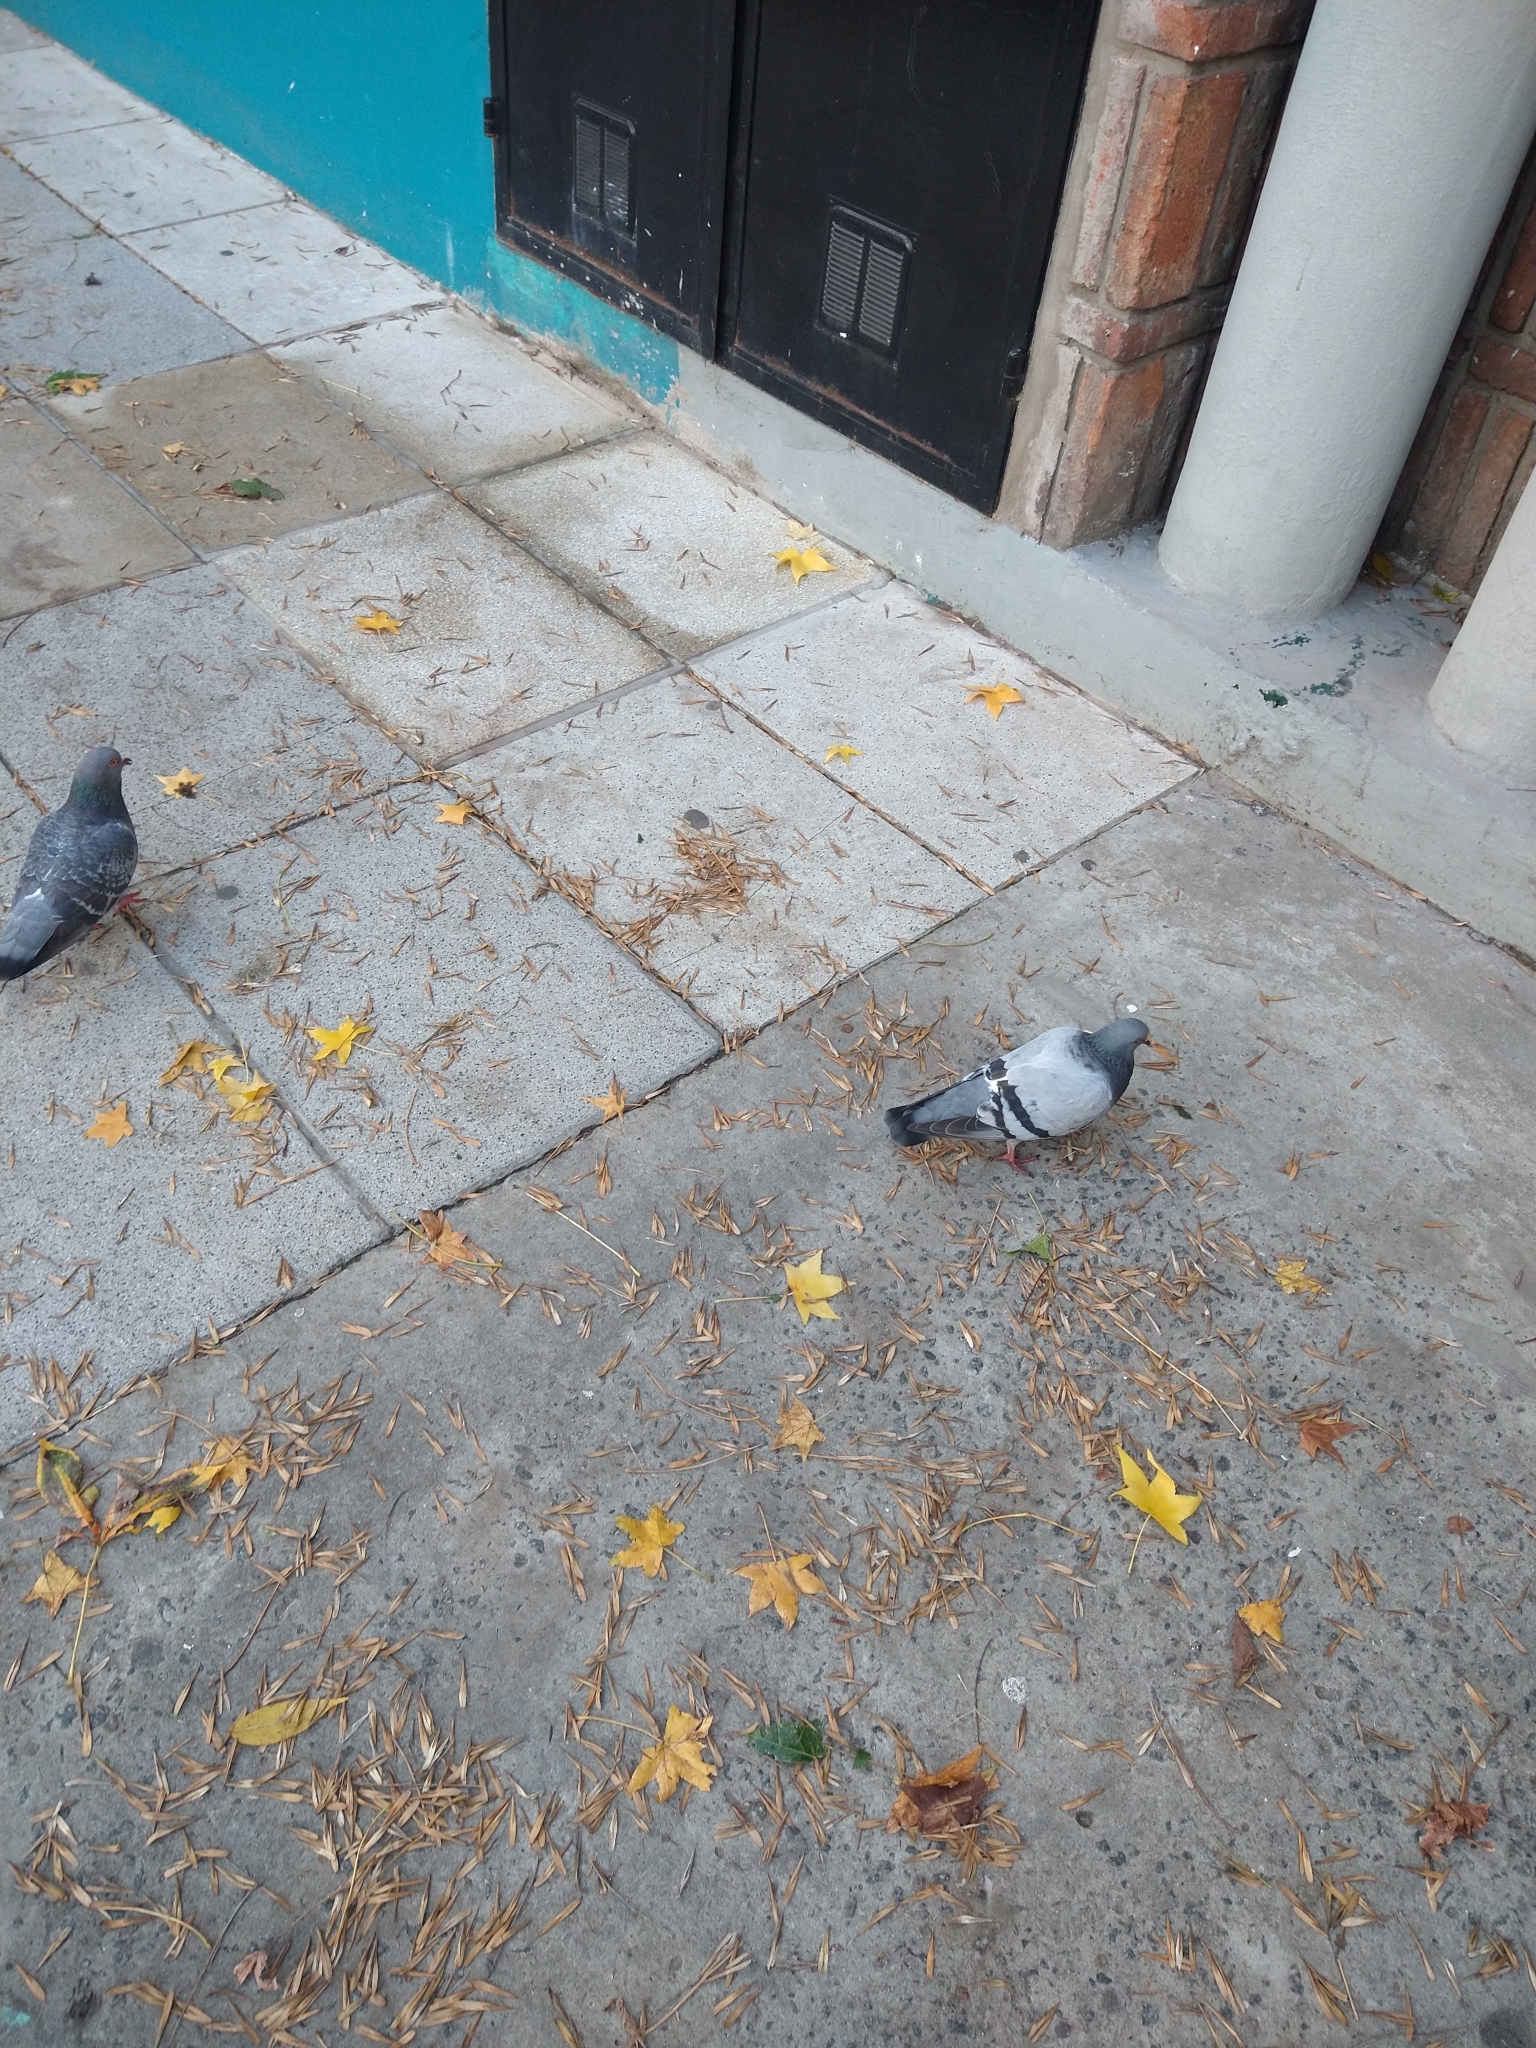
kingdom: Animalia
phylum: Chordata
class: Aves
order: Columbiformes
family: Columbidae
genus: Columba
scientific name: Columba livia
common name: Rock pigeon
